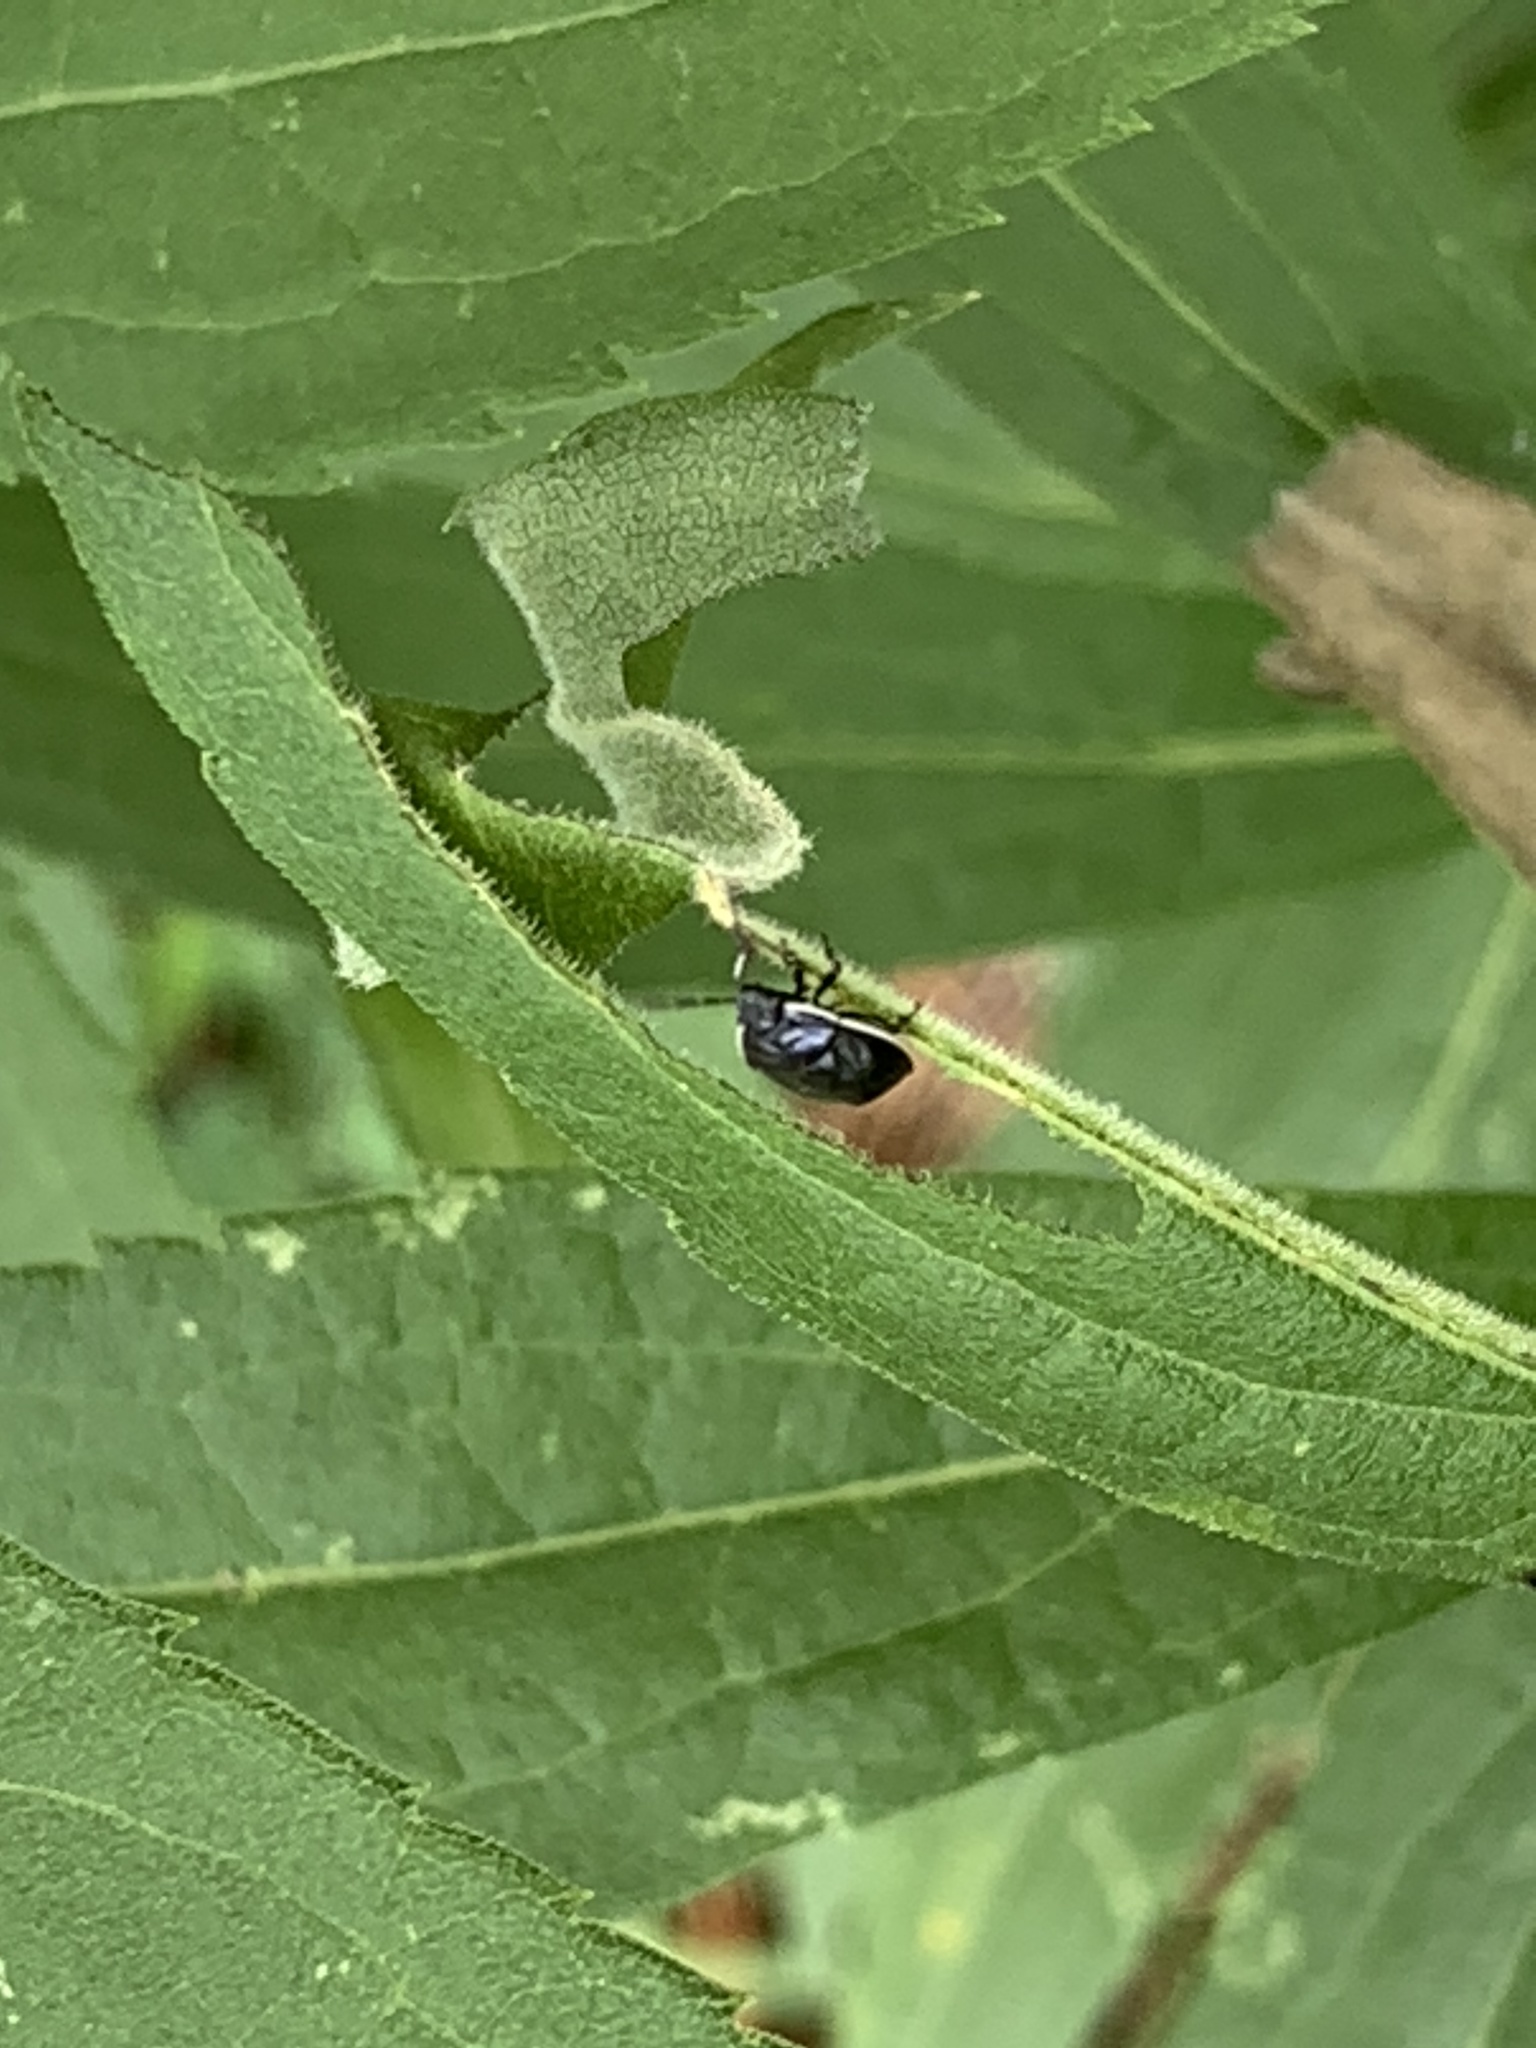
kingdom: Animalia
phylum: Arthropoda
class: Insecta
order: Hemiptera
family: Cydnidae
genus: Sehirus
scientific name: Sehirus cinctus
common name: White-margined burrower bug
